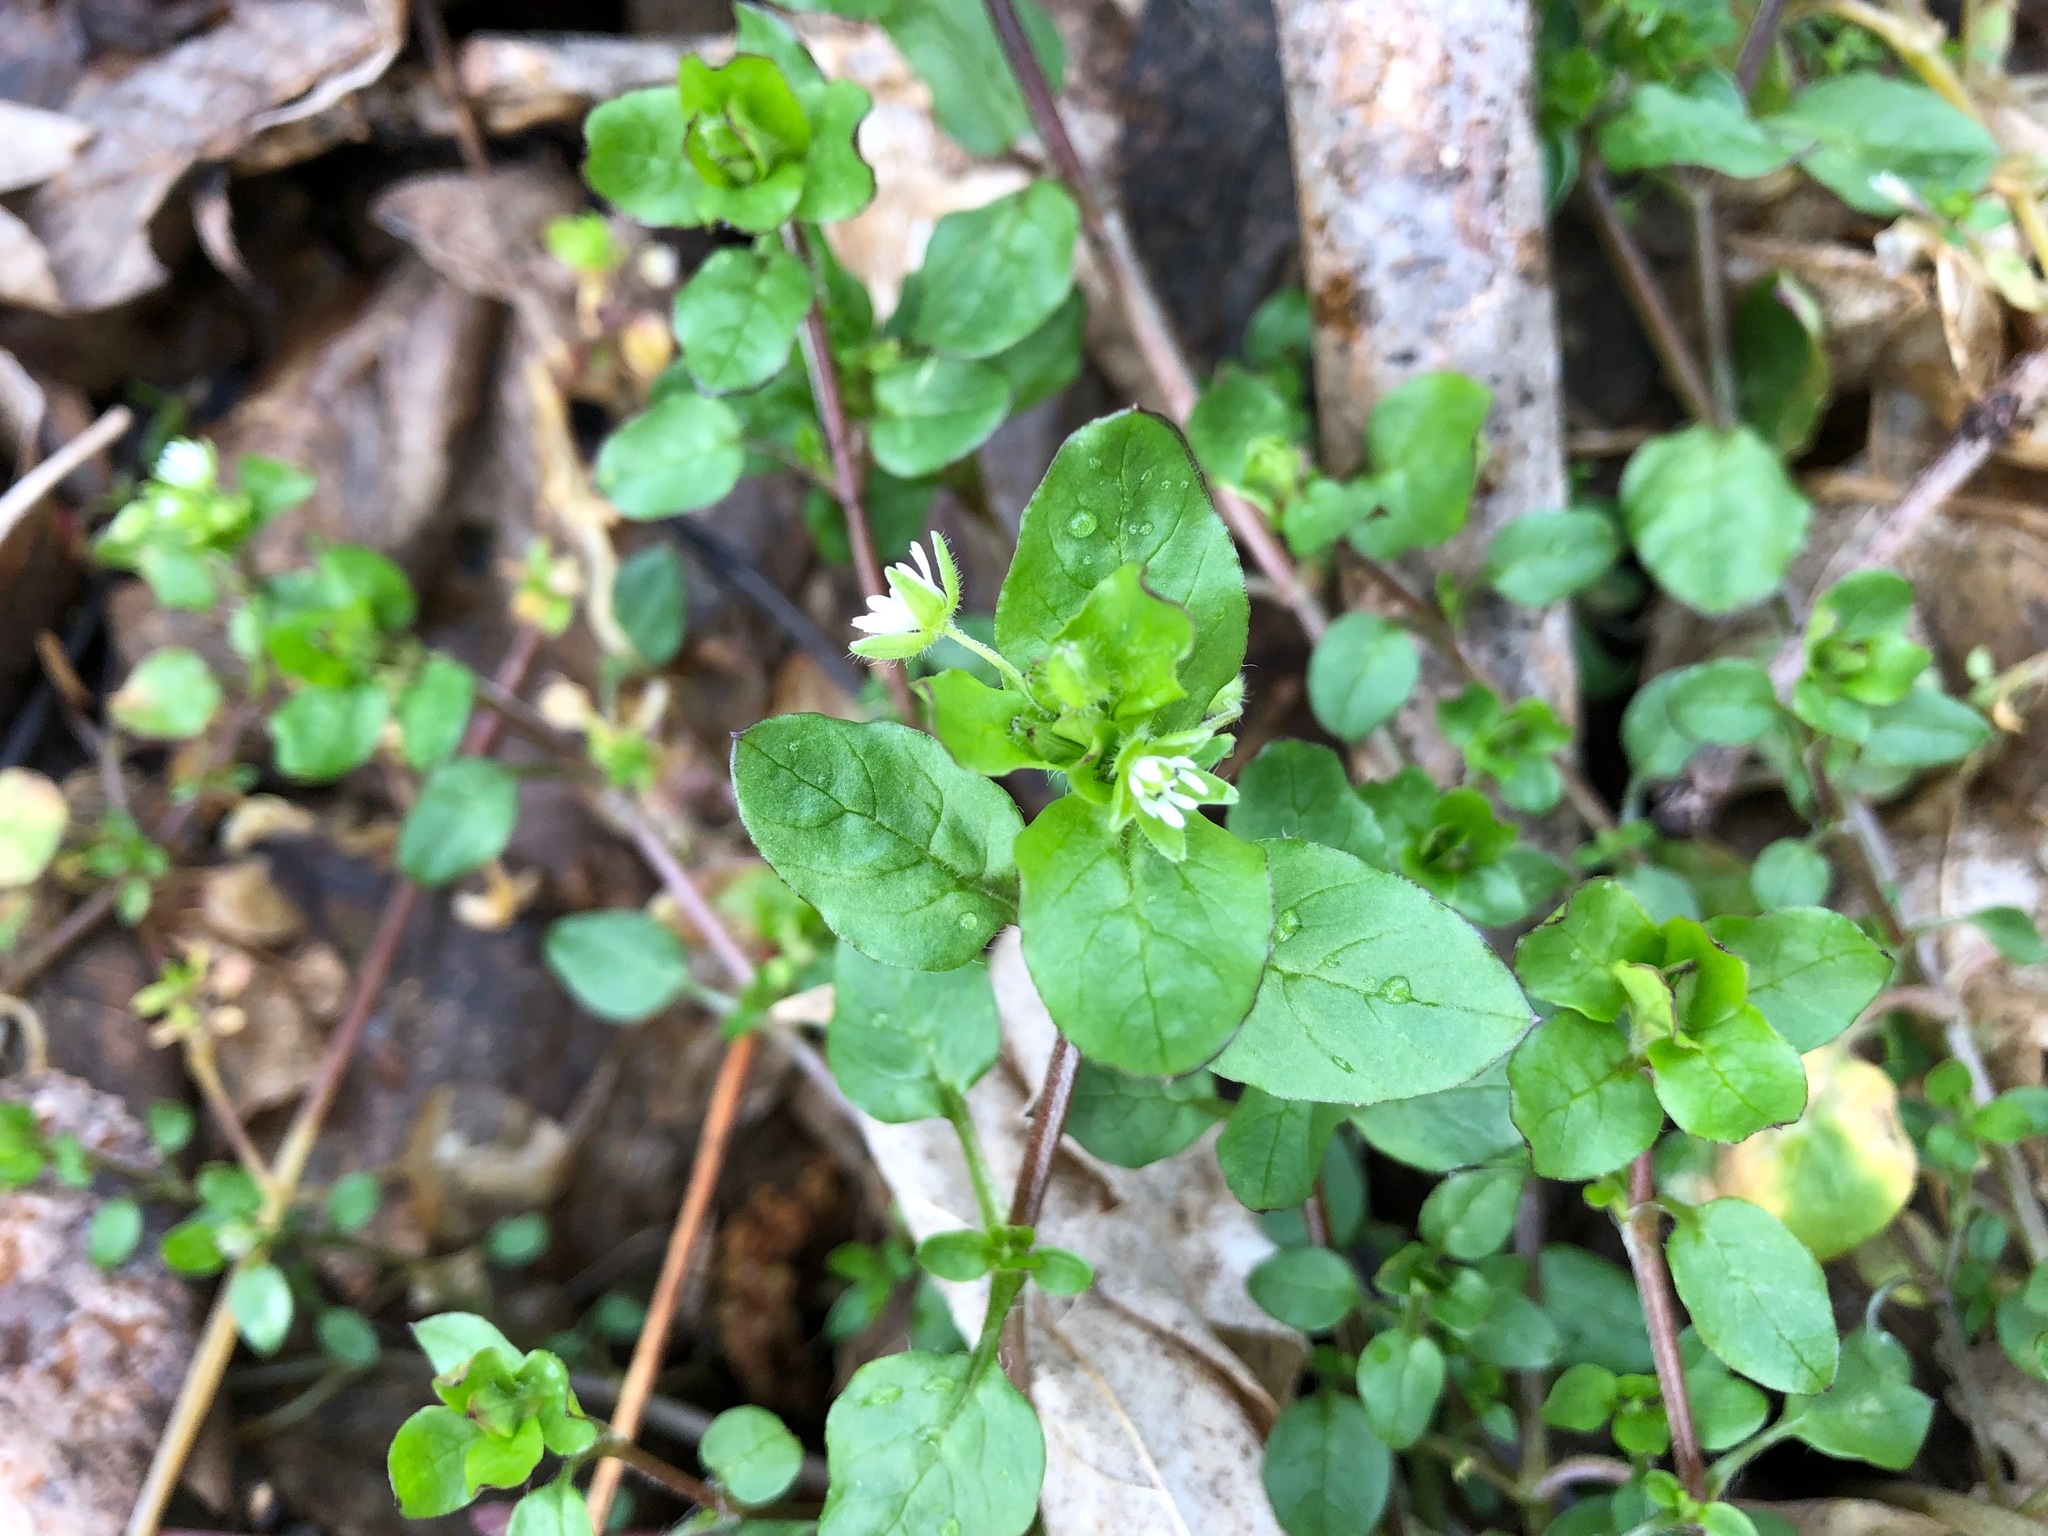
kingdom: Plantae
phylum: Tracheophyta
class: Magnoliopsida
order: Caryophyllales
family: Caryophyllaceae
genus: Stellaria
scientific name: Stellaria media
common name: Common chickweed
